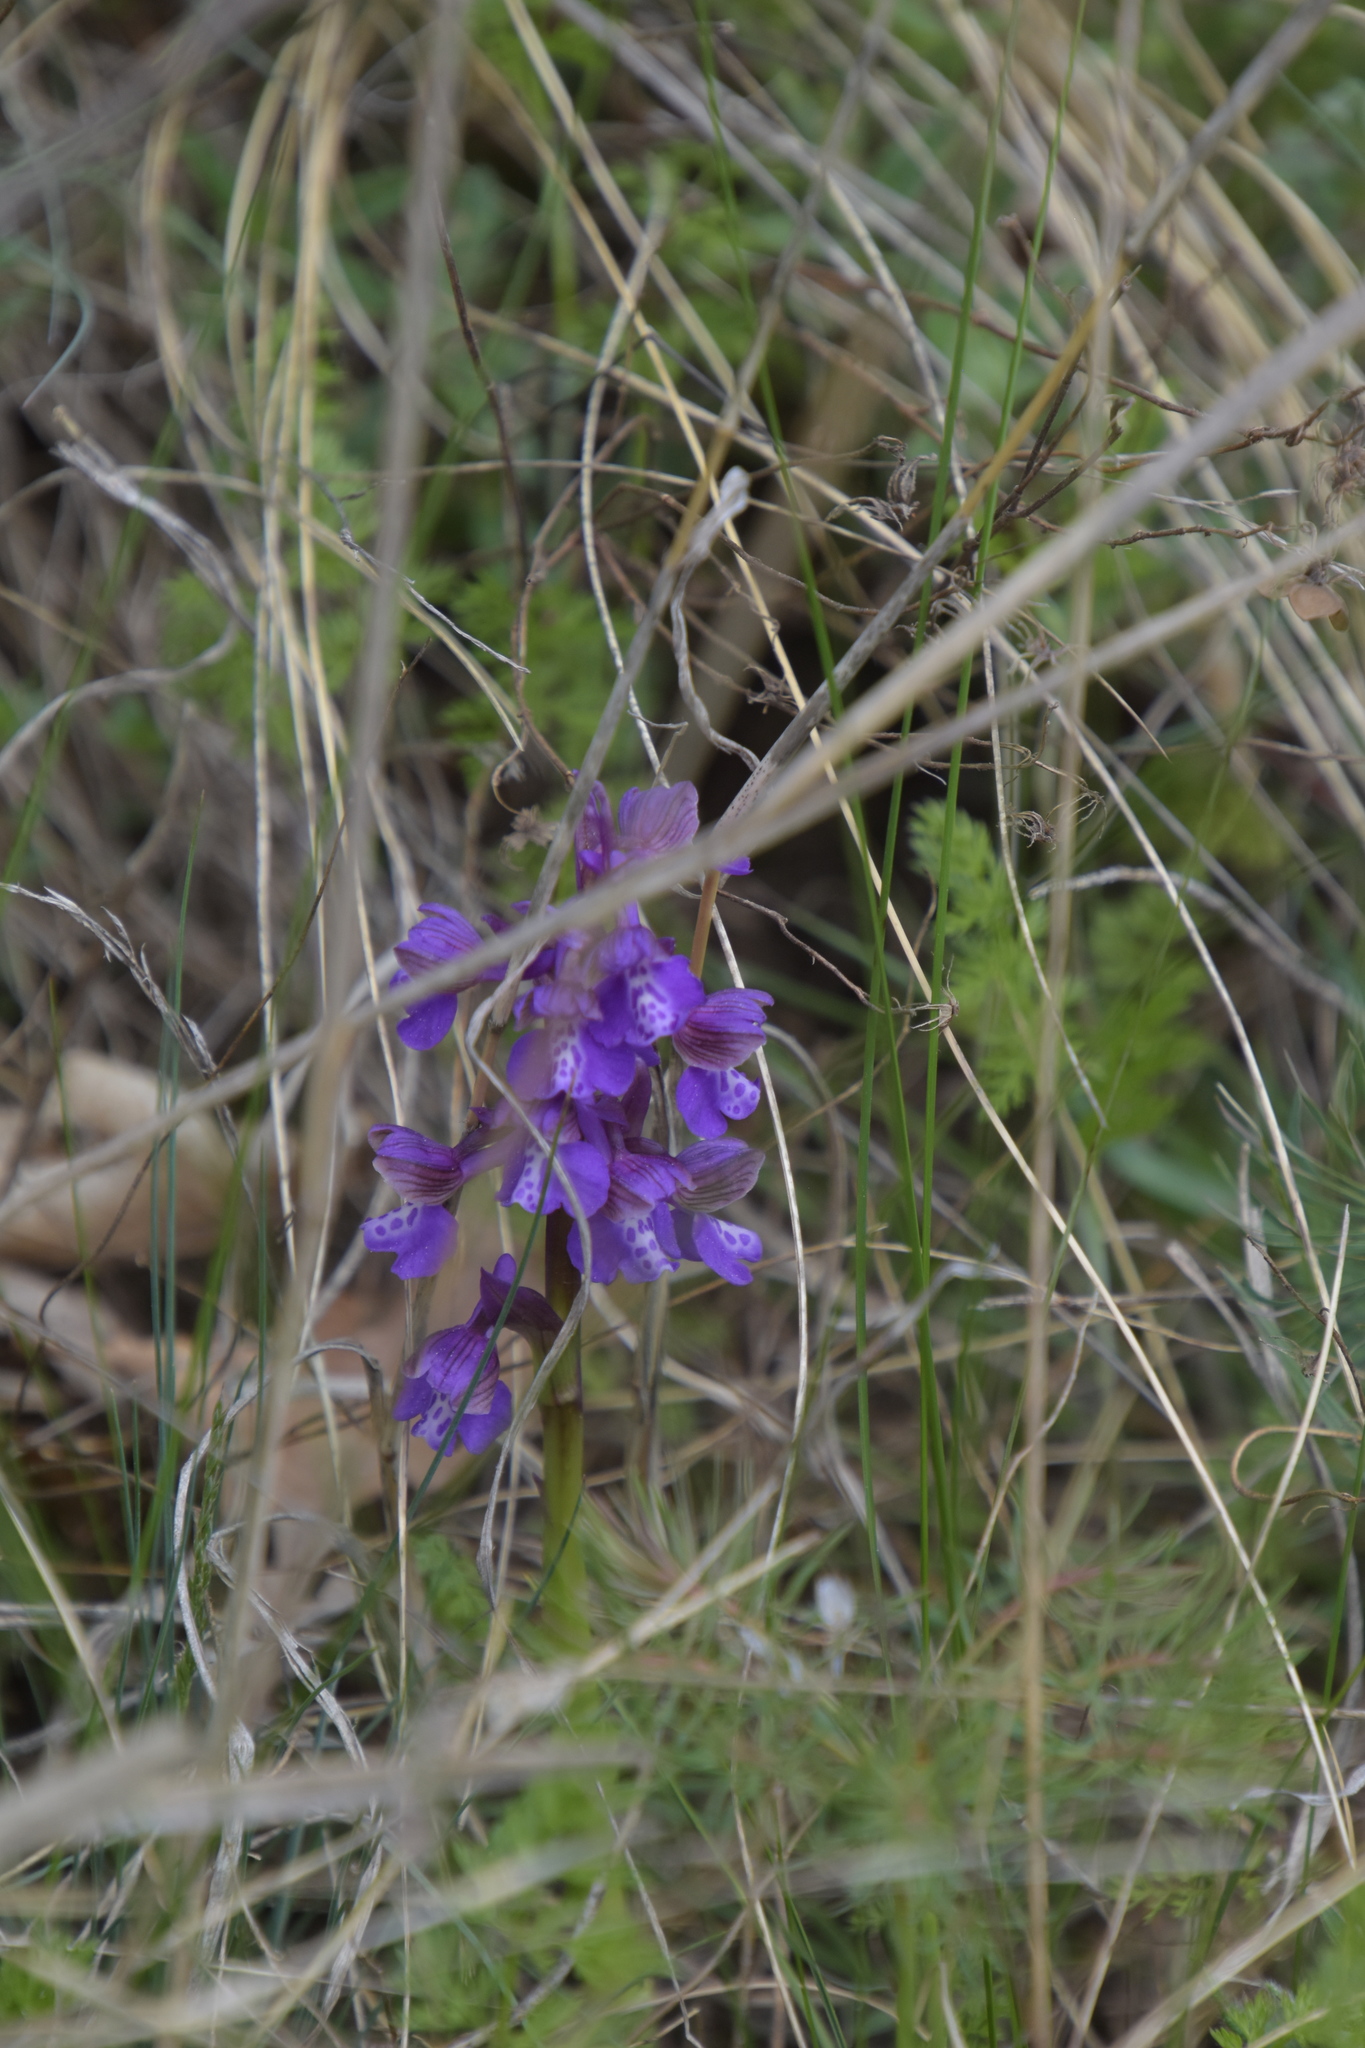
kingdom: Plantae
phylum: Tracheophyta
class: Liliopsida
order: Asparagales
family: Orchidaceae
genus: Anacamptis
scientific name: Anacamptis morio
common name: Green-winged orchid
